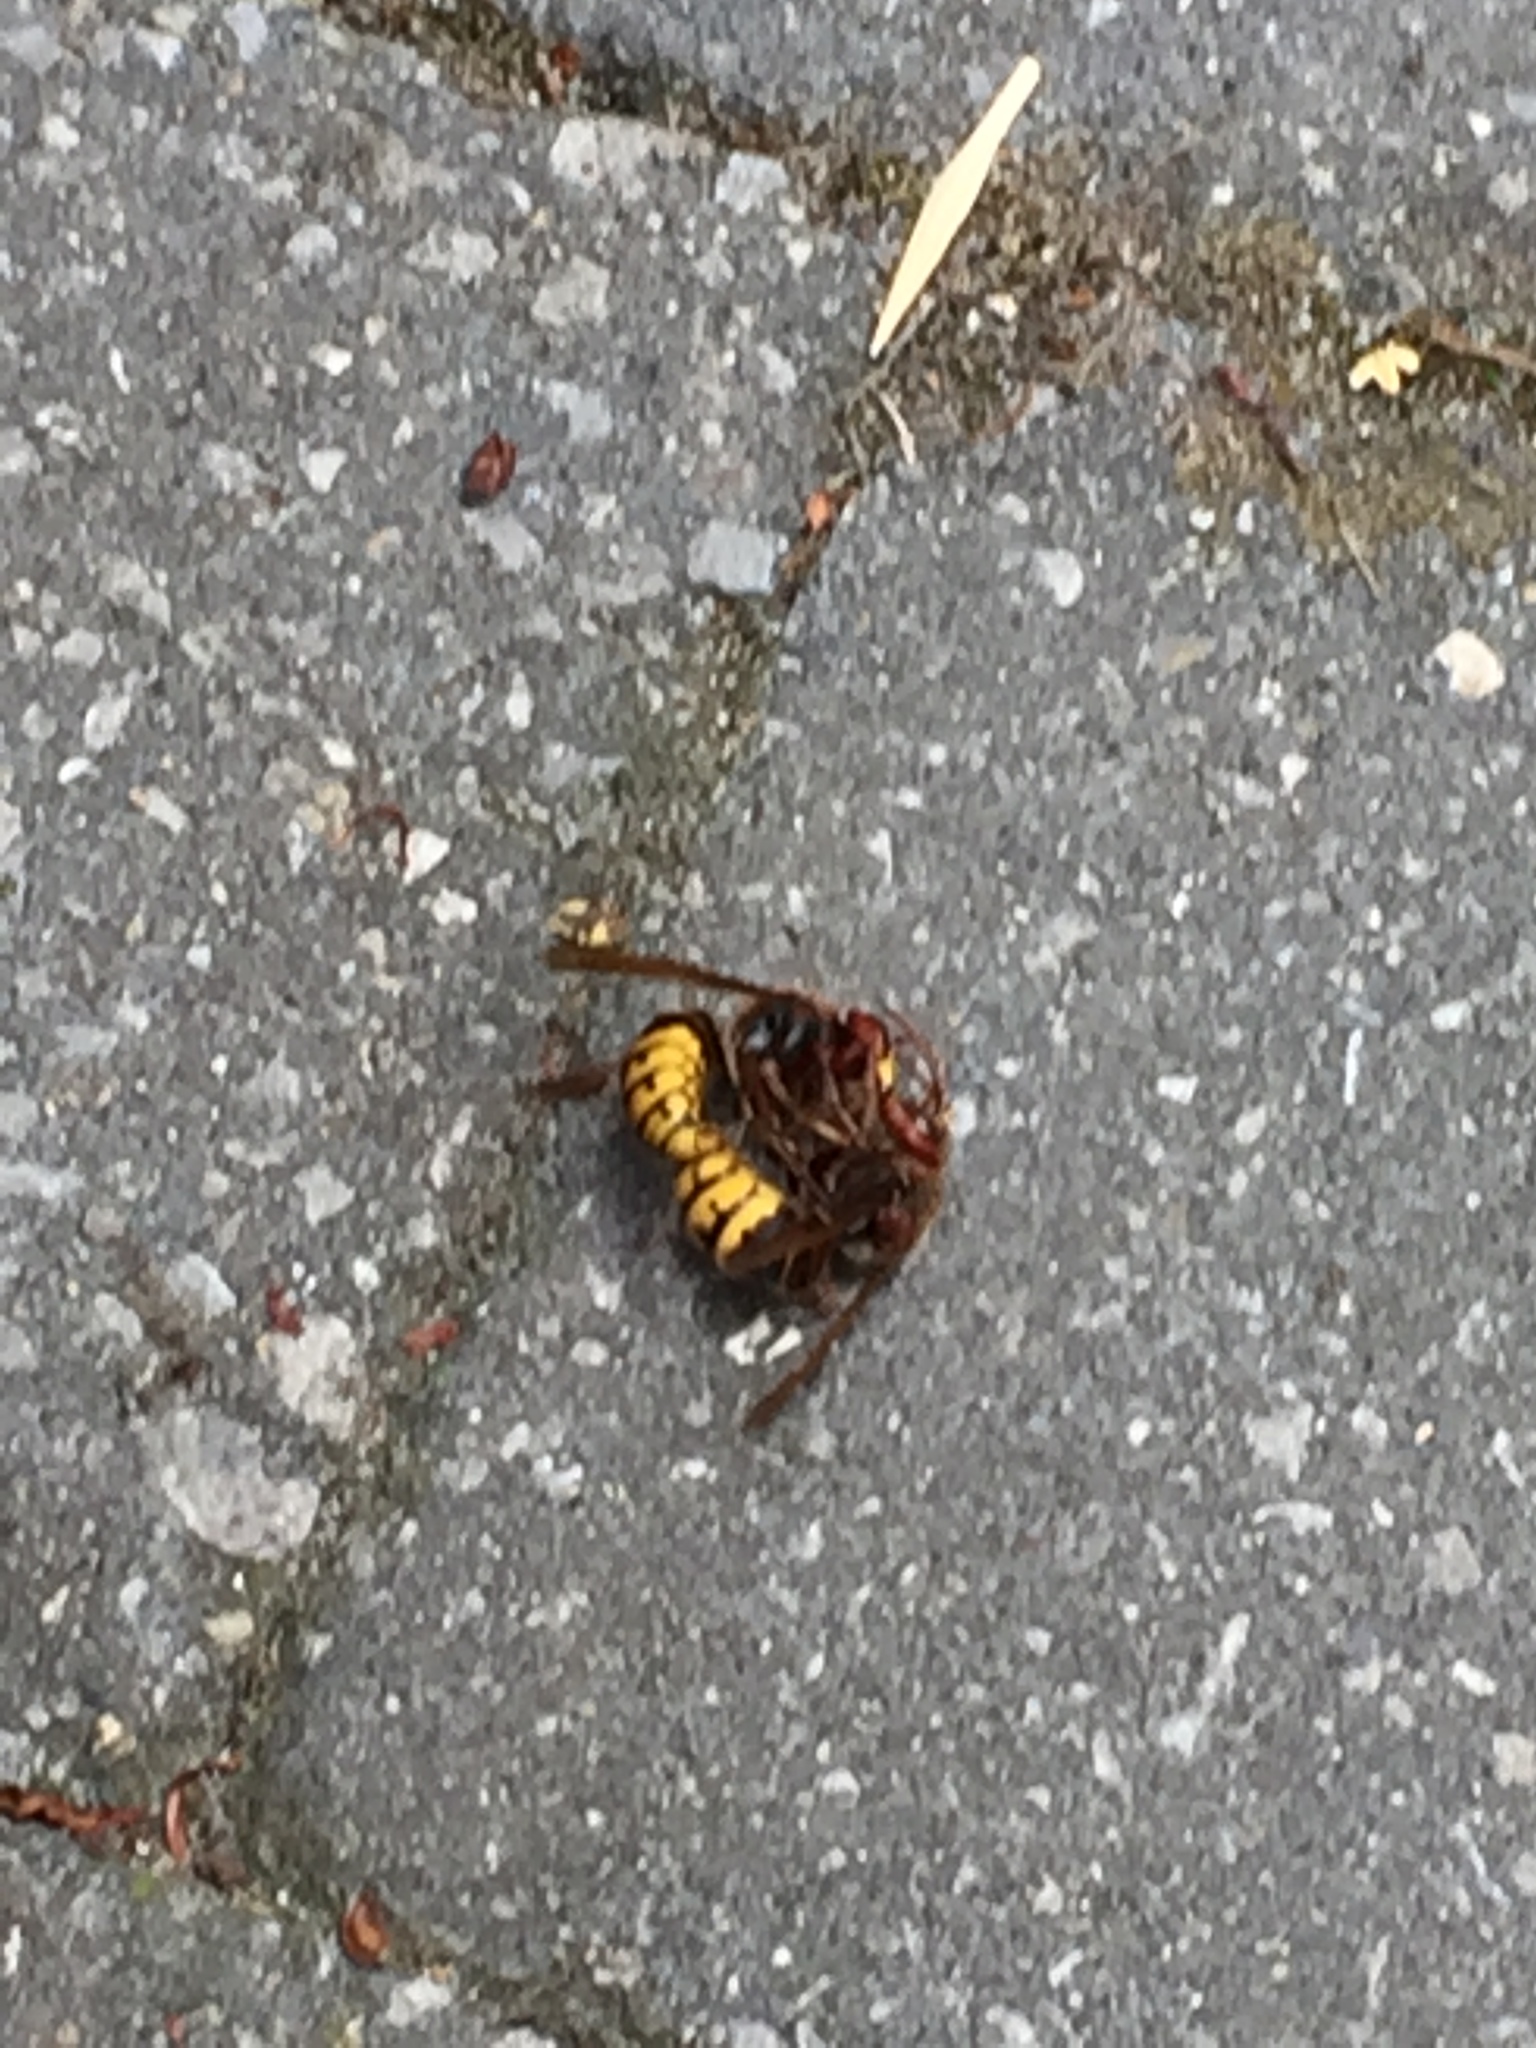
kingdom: Animalia
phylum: Arthropoda
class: Insecta
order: Hymenoptera
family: Vespidae
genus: Vespa
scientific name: Vespa crabro
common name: Hornet
